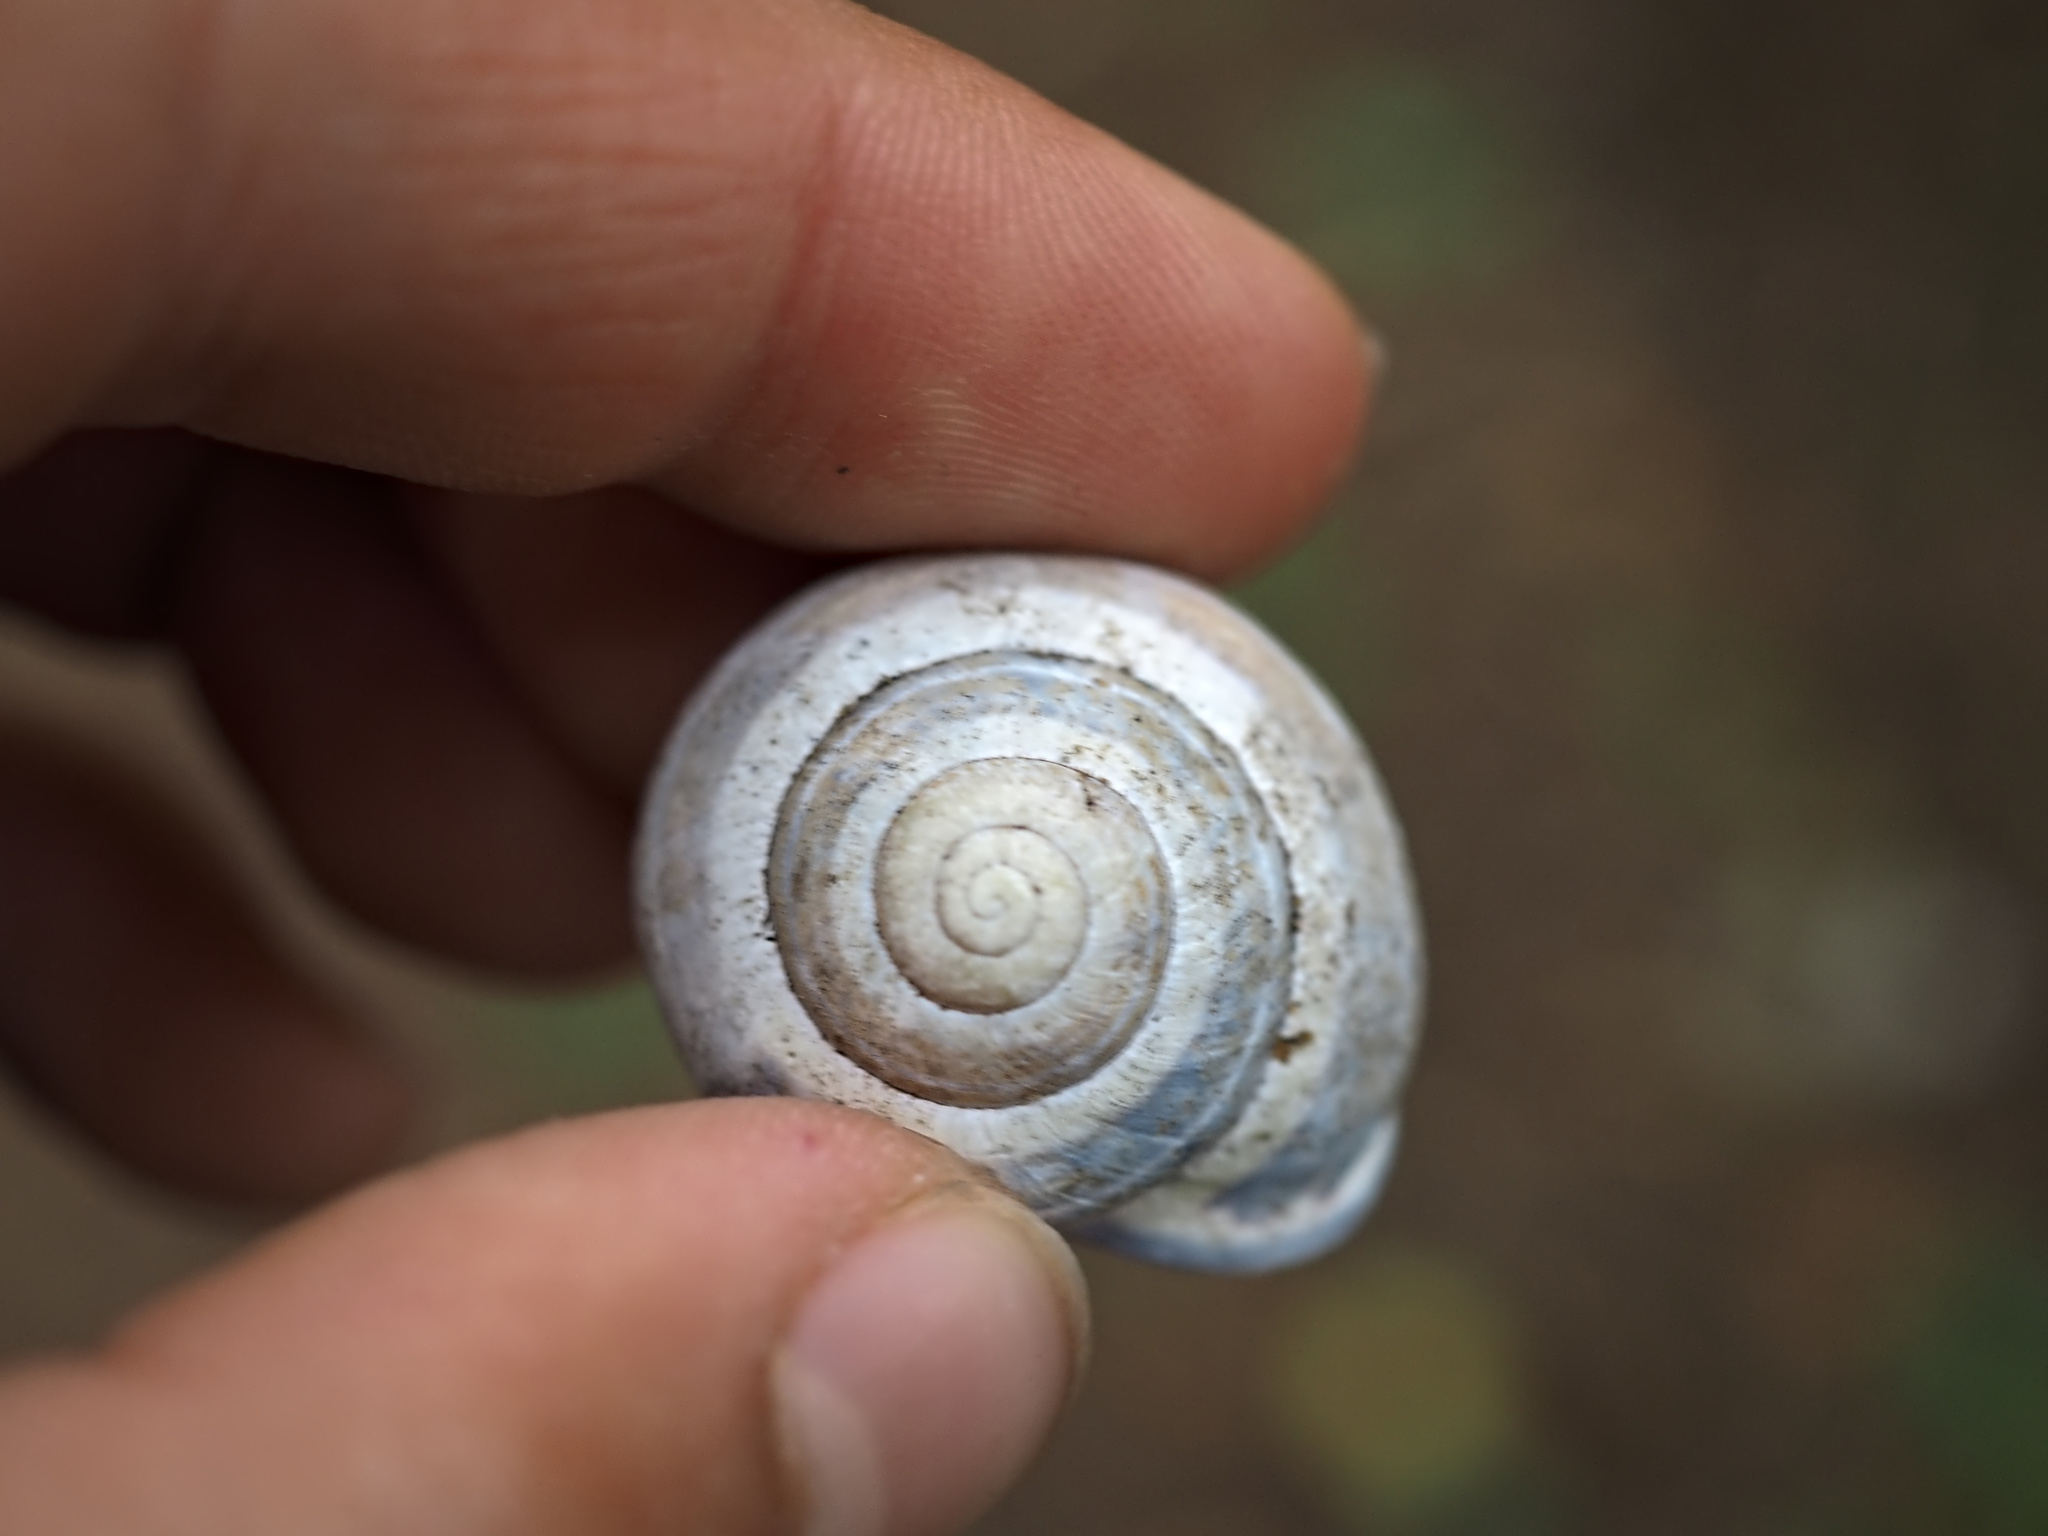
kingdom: Animalia
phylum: Mollusca
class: Gastropoda
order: Stylommatophora
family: Helicidae
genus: Cepaea
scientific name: Cepaea nemoralis
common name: Grovesnail
